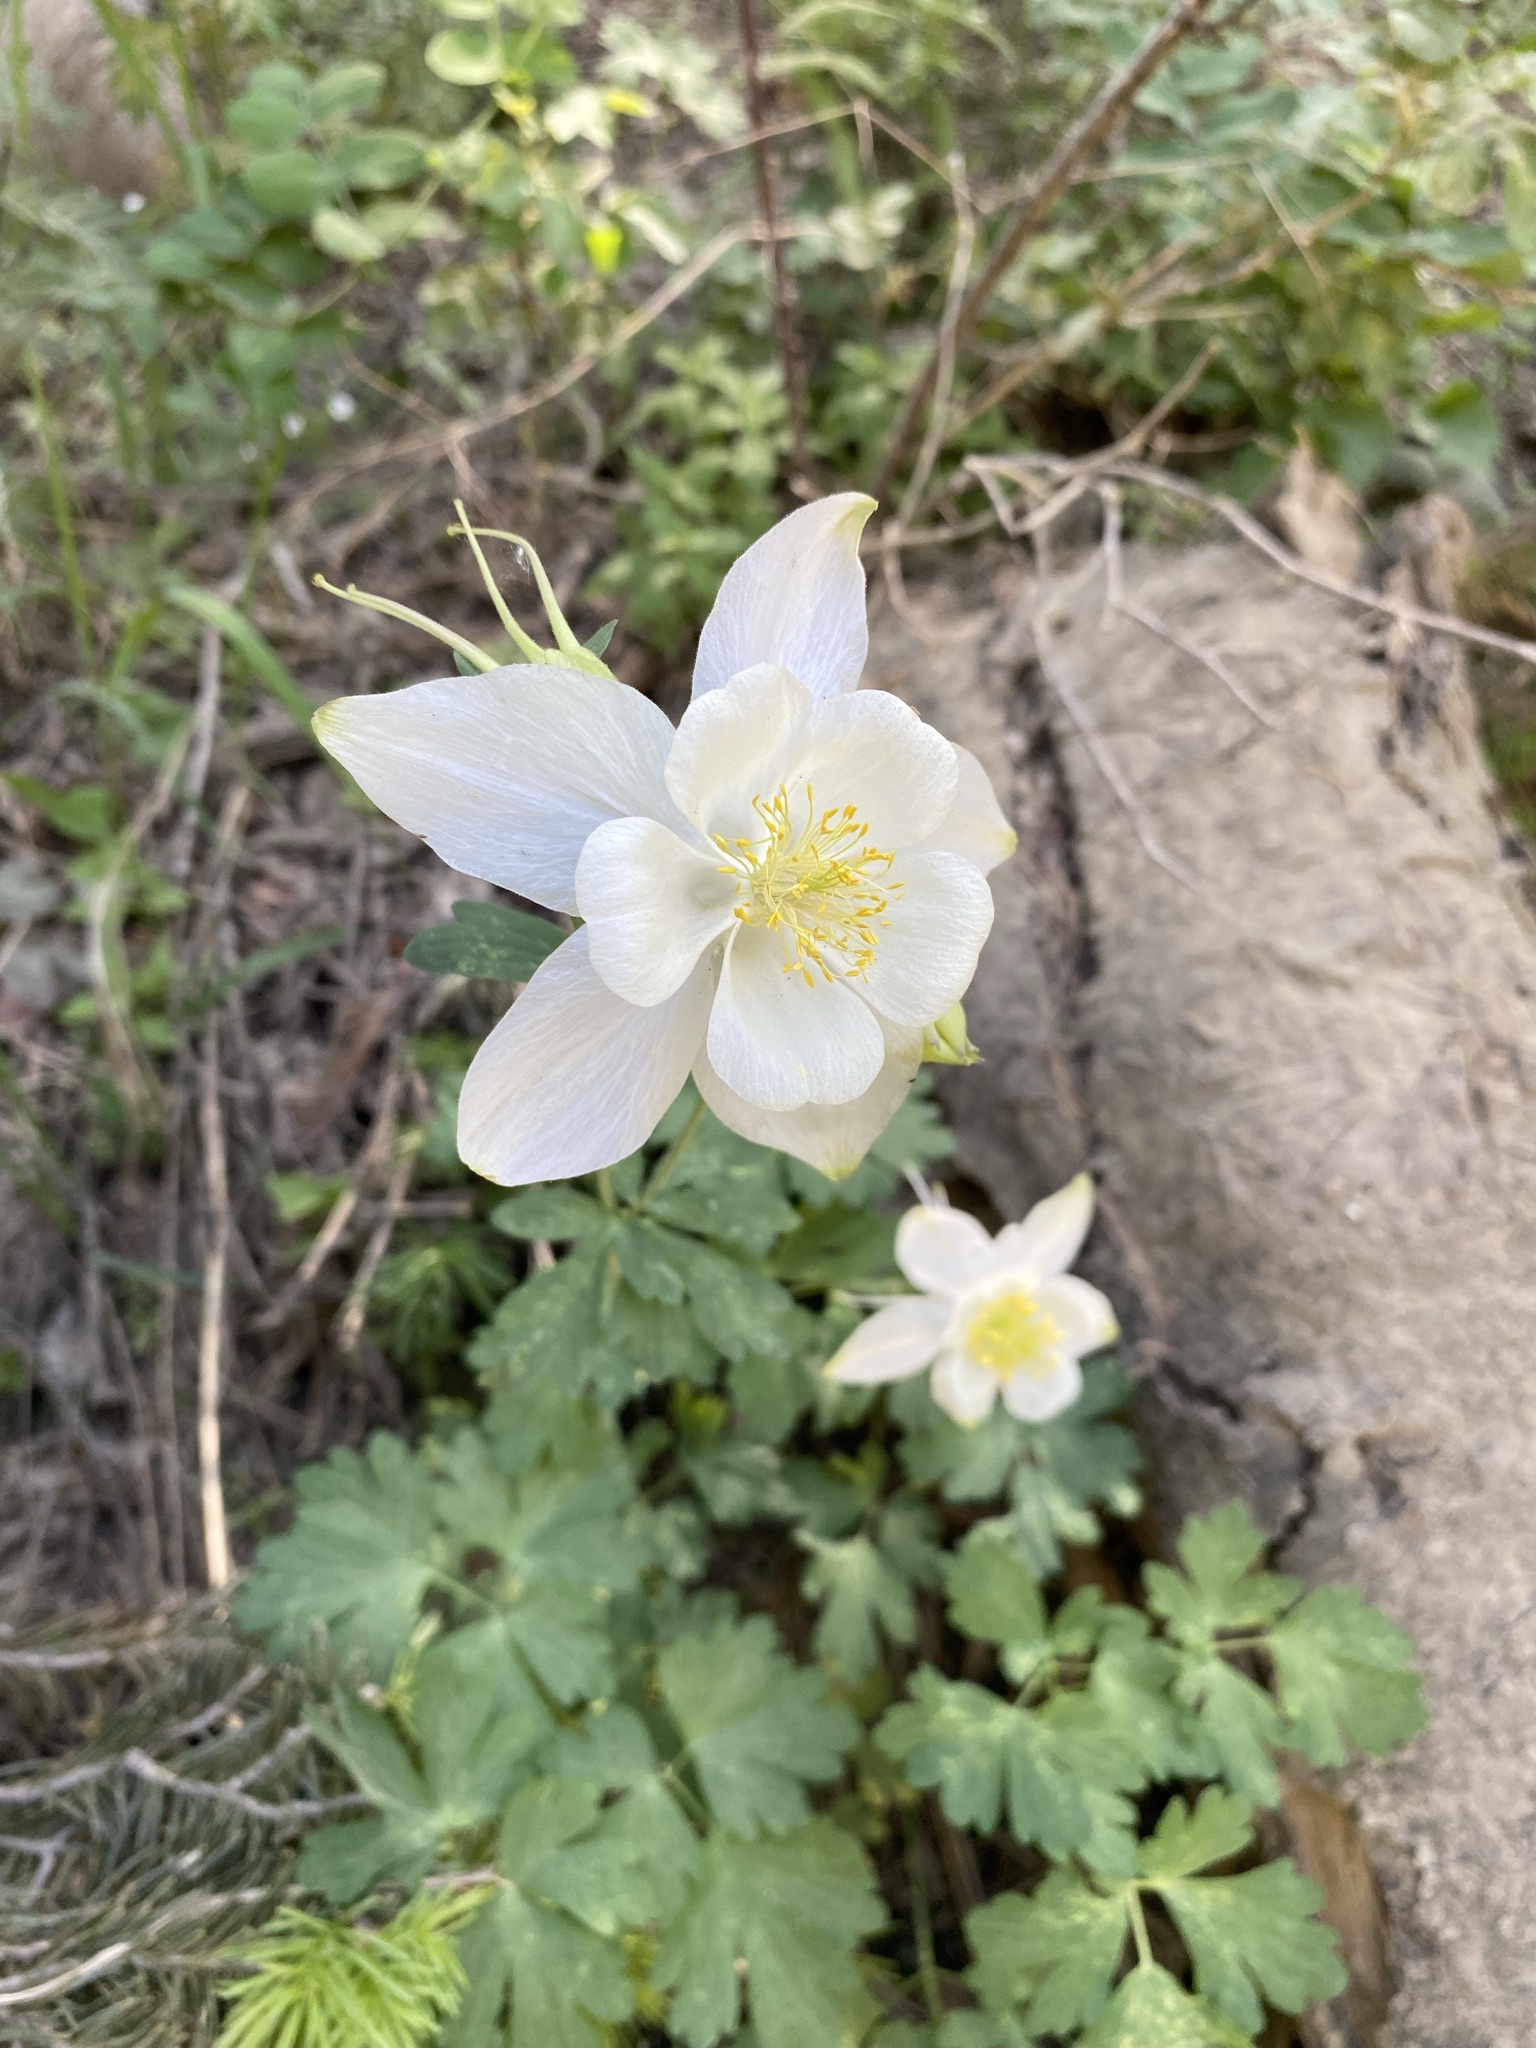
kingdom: Plantae
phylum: Tracheophyta
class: Magnoliopsida
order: Ranunculales
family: Ranunculaceae
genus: Aquilegia
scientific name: Aquilegia coerulea
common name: Rocky mountain columbine
